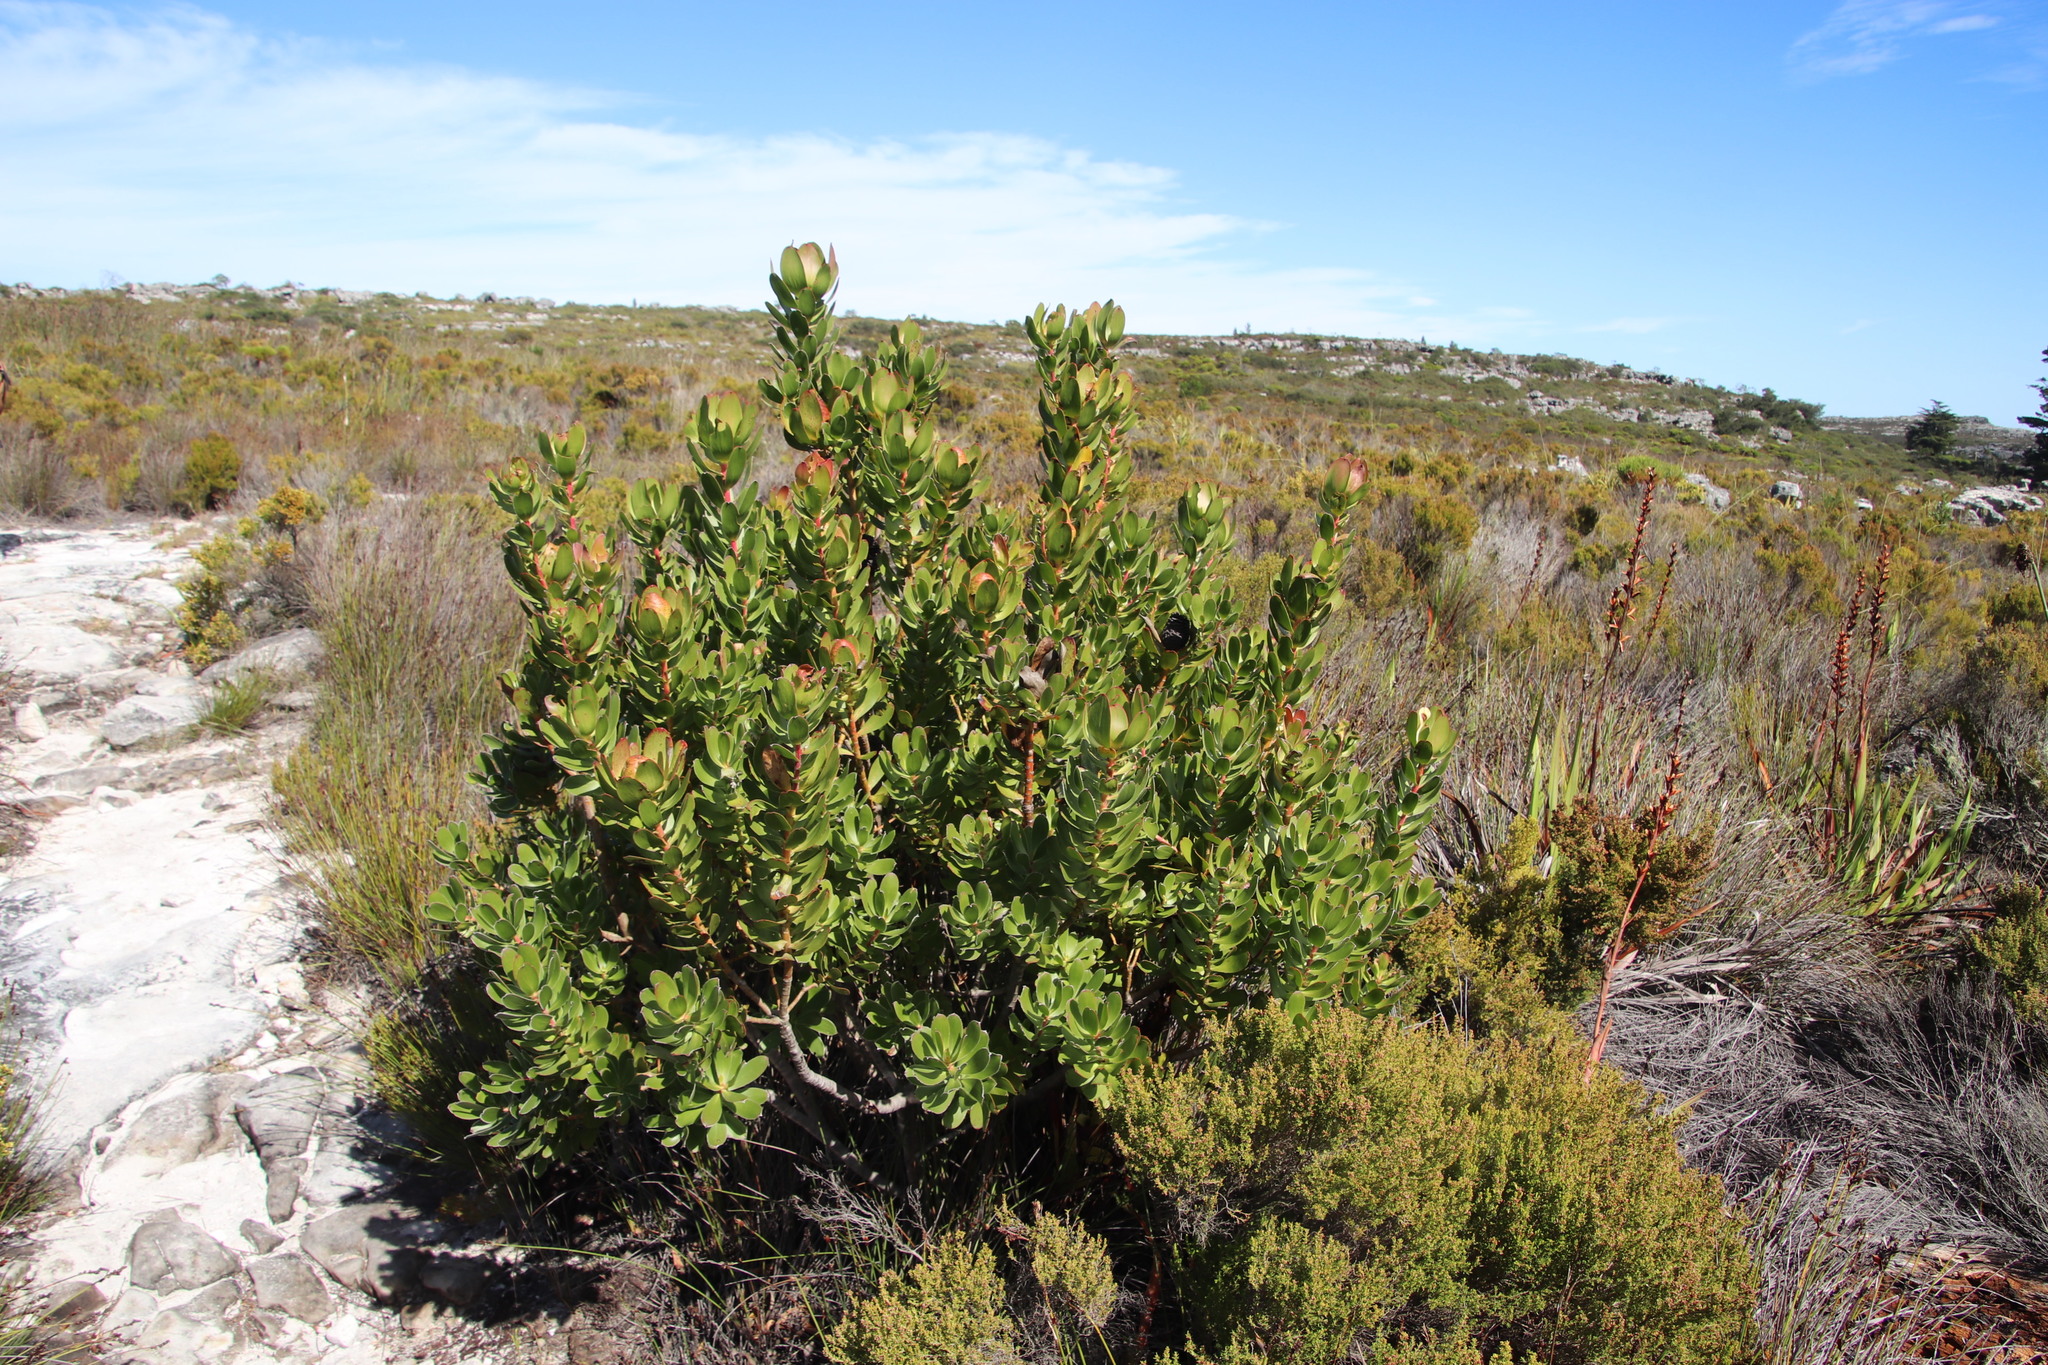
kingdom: Plantae
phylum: Tracheophyta
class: Magnoliopsida
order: Proteales
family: Proteaceae
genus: Leucadendron
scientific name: Leucadendron strobilinum
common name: Mountain rose
